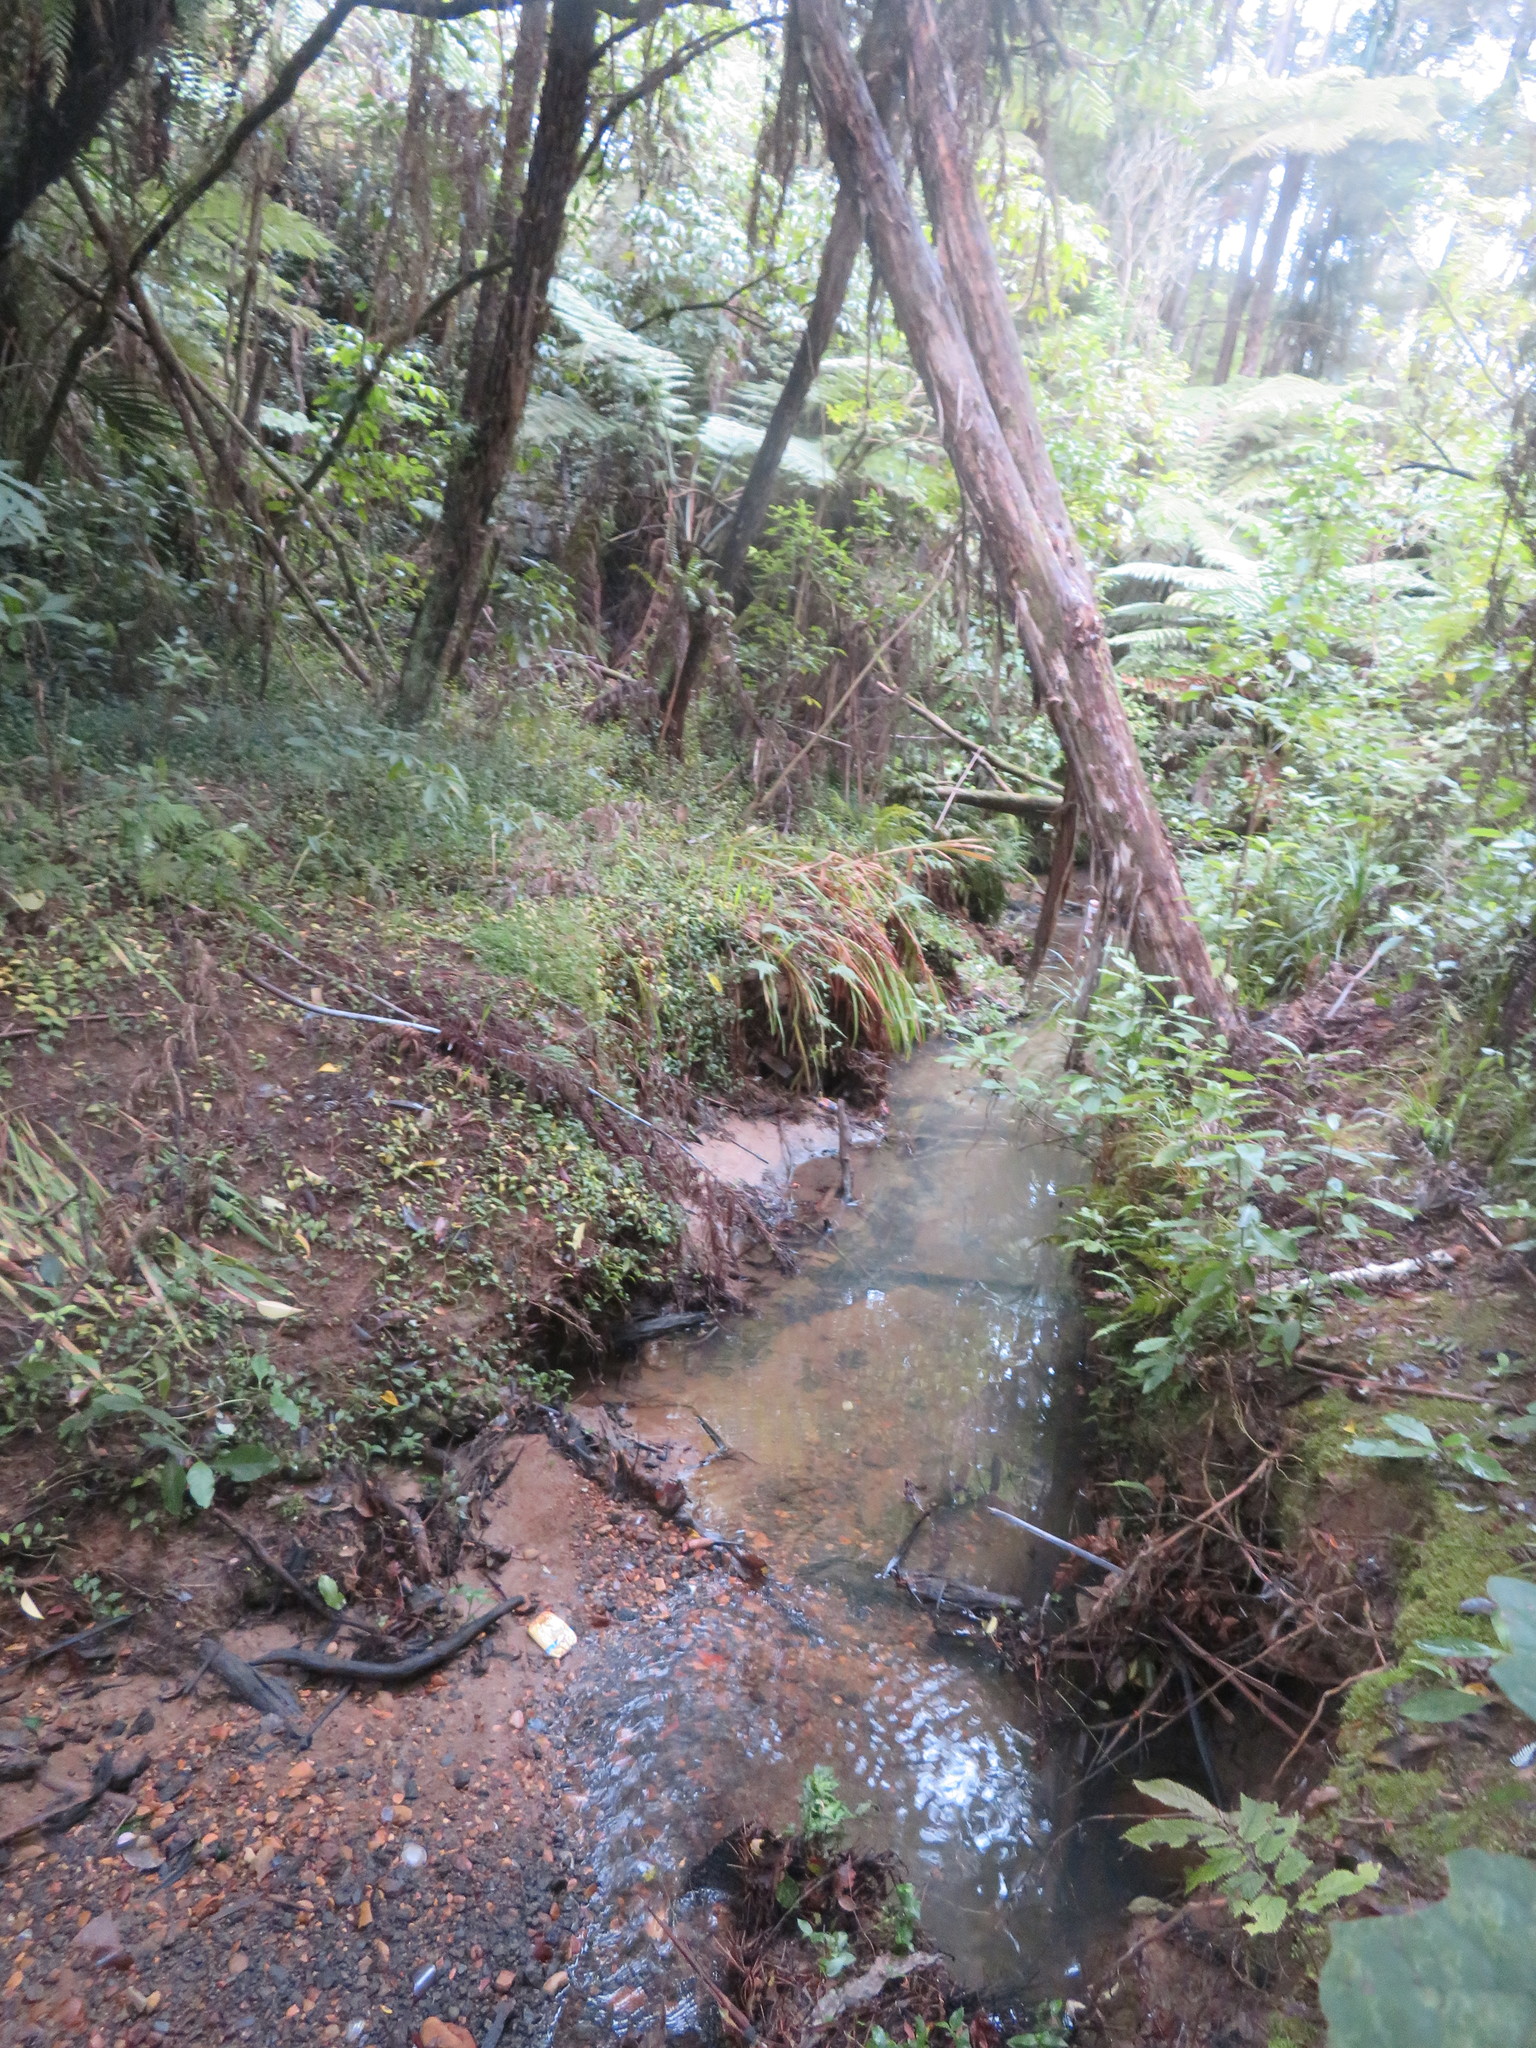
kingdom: Plantae
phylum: Tracheophyta
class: Magnoliopsida
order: Rosales
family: Urticaceae
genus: Elatostema
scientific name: Elatostema rugosum
